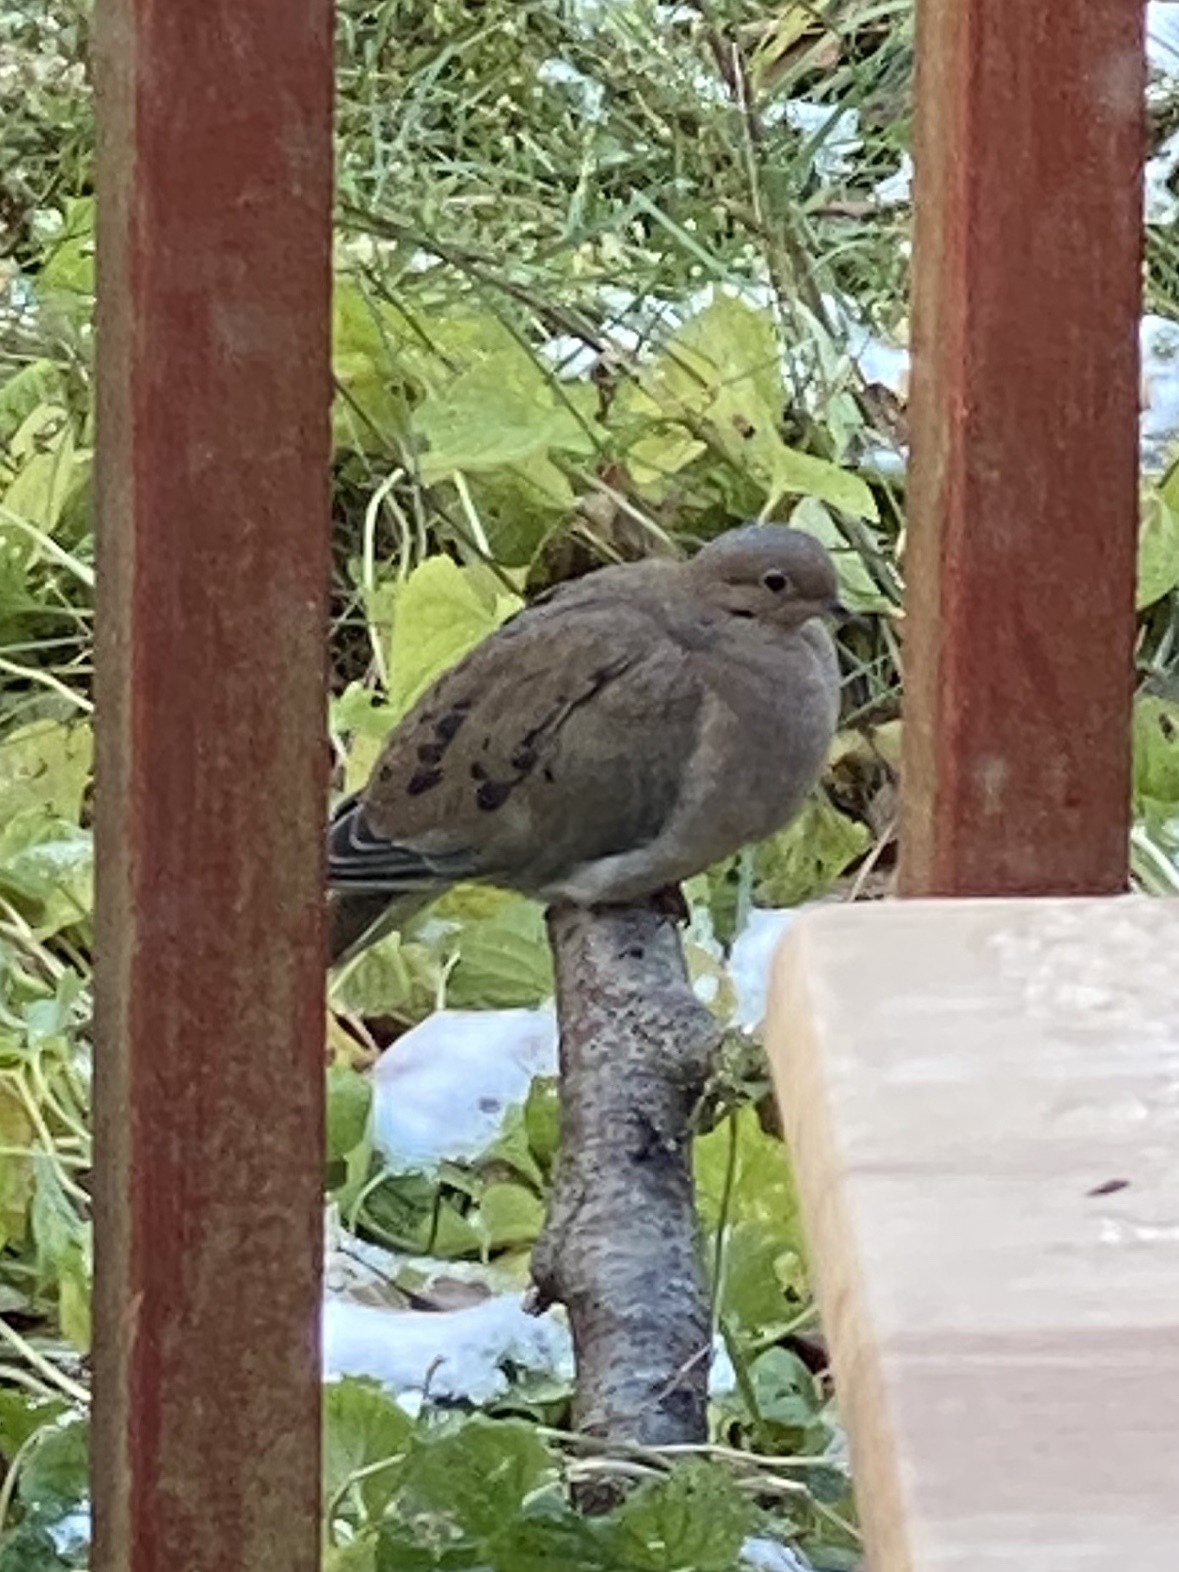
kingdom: Animalia
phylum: Chordata
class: Aves
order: Columbiformes
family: Columbidae
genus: Zenaida
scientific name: Zenaida macroura
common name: Mourning dove
